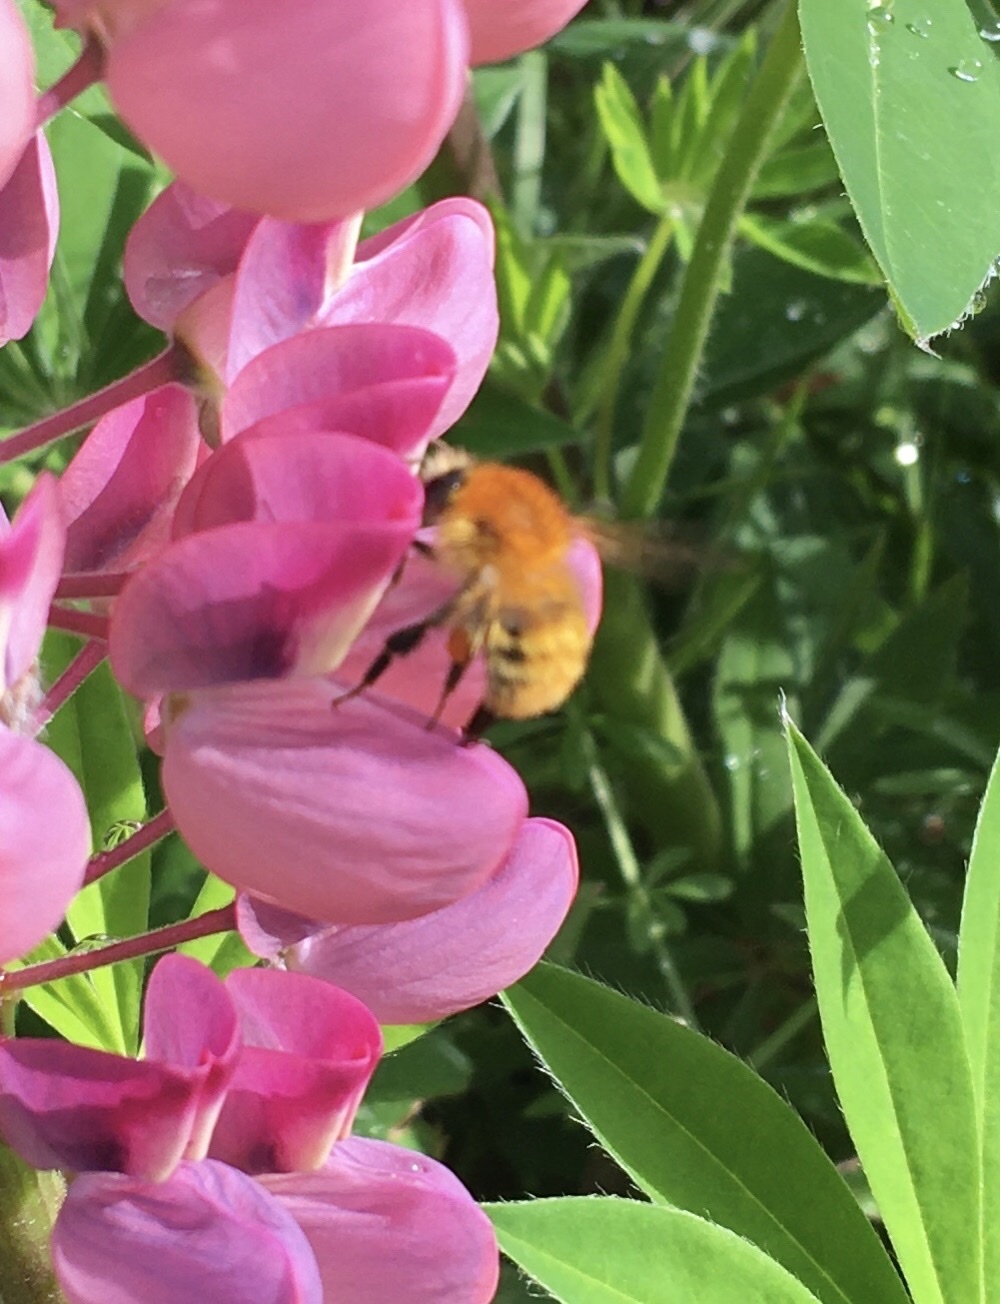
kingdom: Animalia
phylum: Arthropoda
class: Insecta
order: Hymenoptera
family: Apidae
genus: Bombus
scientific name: Bombus pascuorum
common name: Common carder bee
